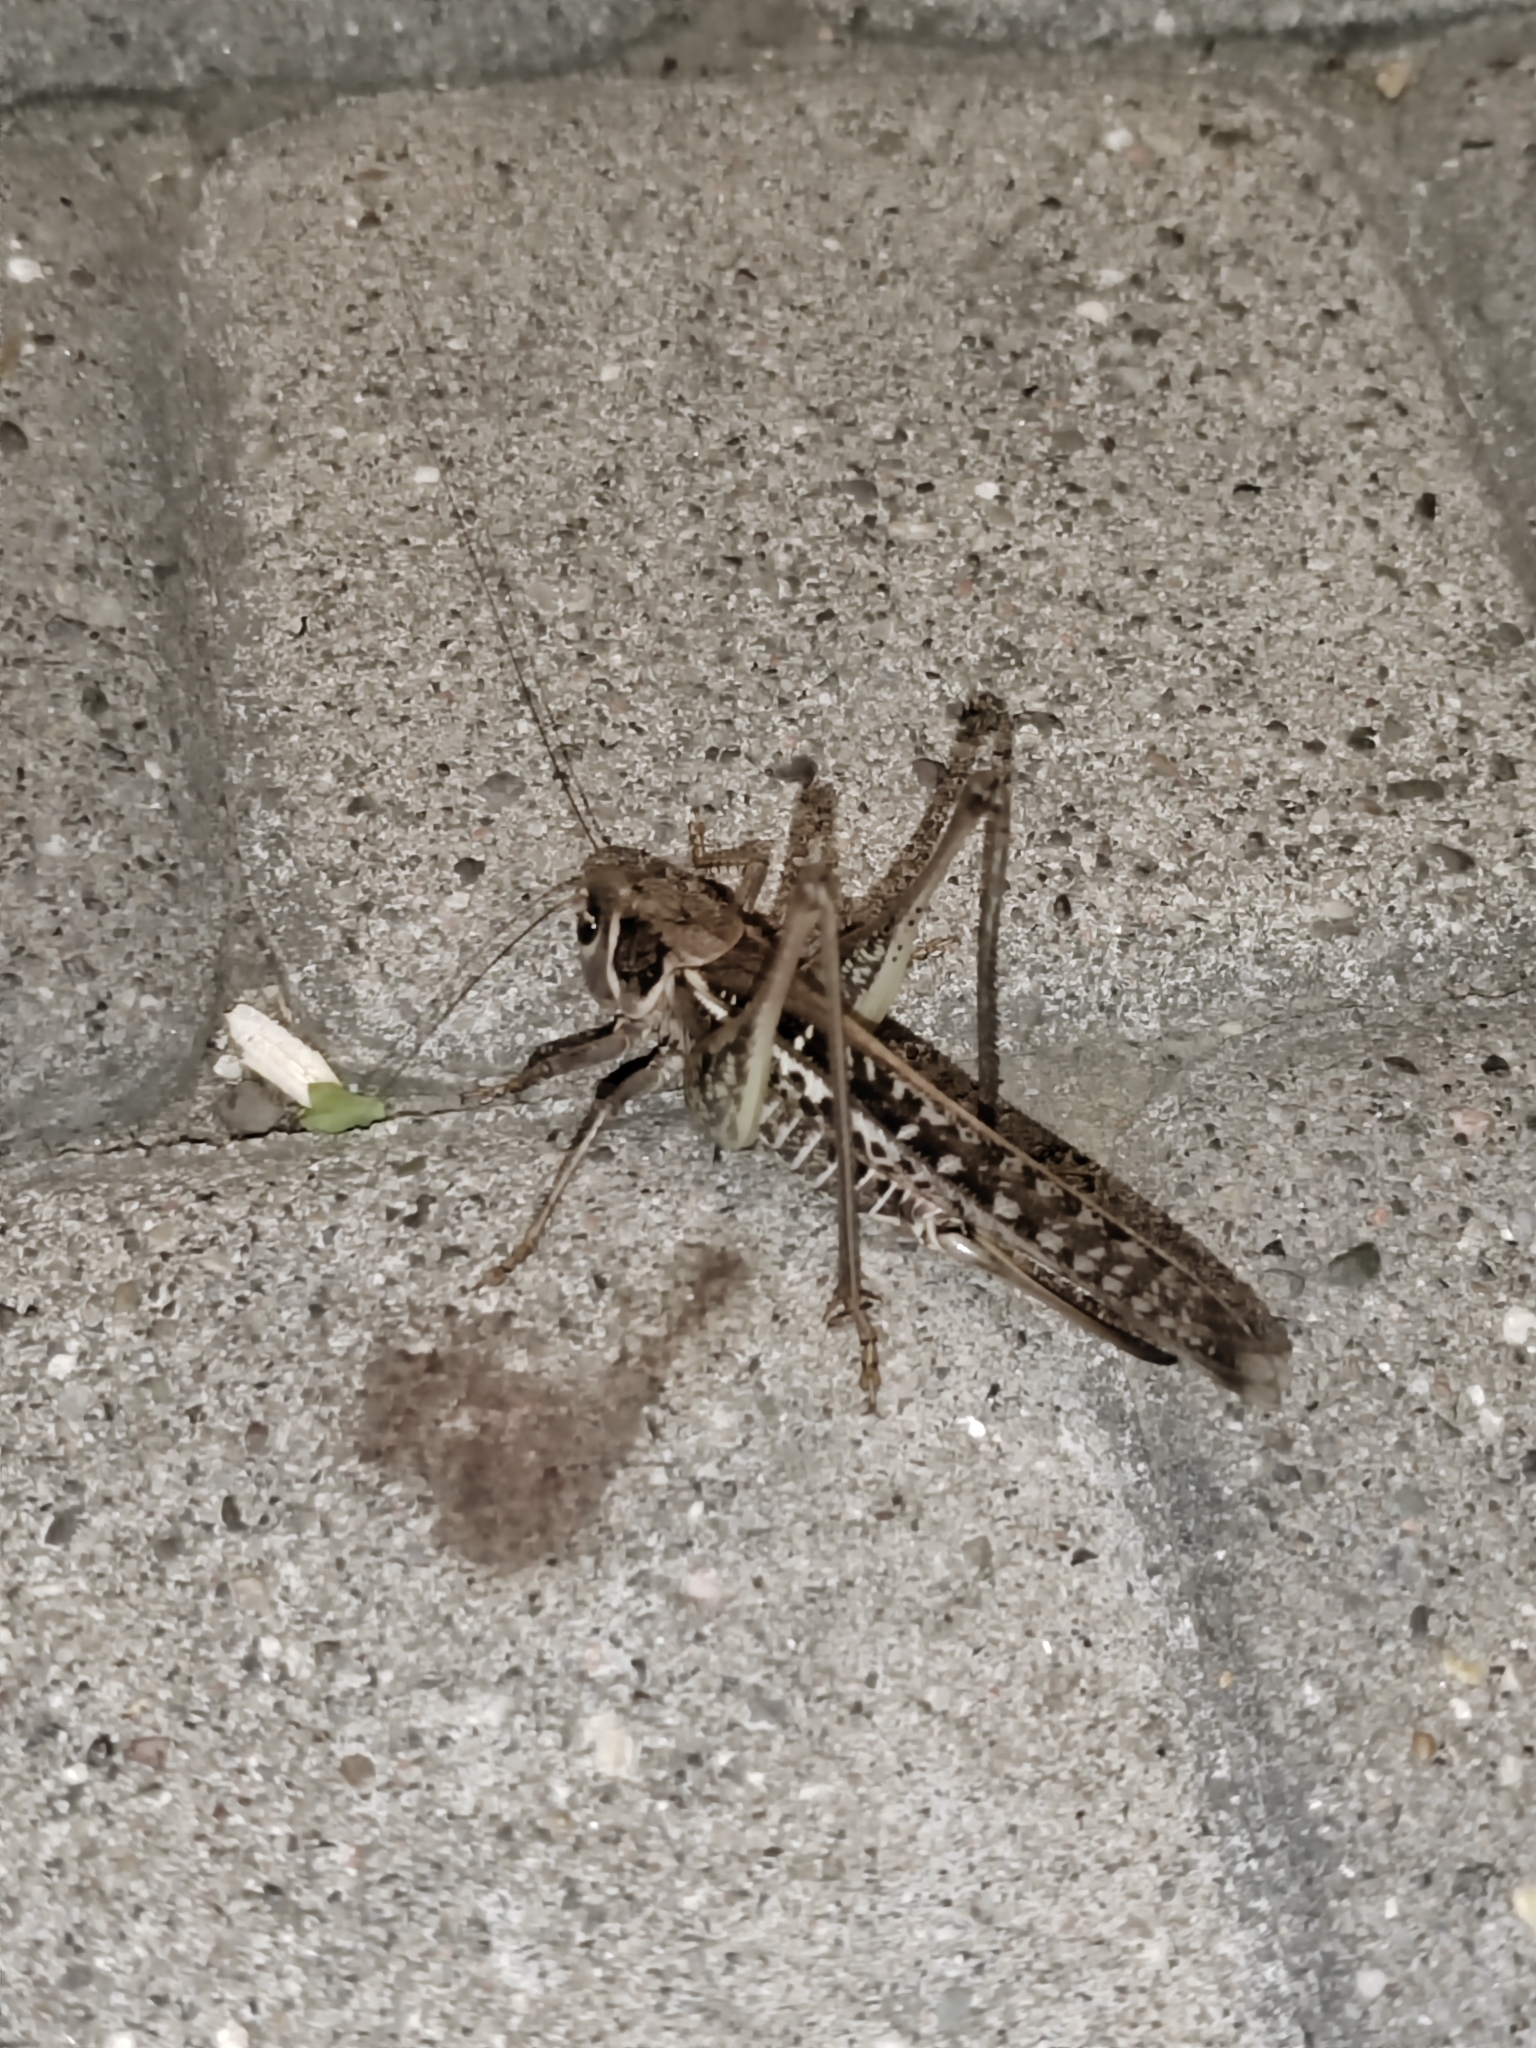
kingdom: Animalia
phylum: Arthropoda
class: Insecta
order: Orthoptera
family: Tettigoniidae
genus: Decticus
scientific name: Decticus albifrons
